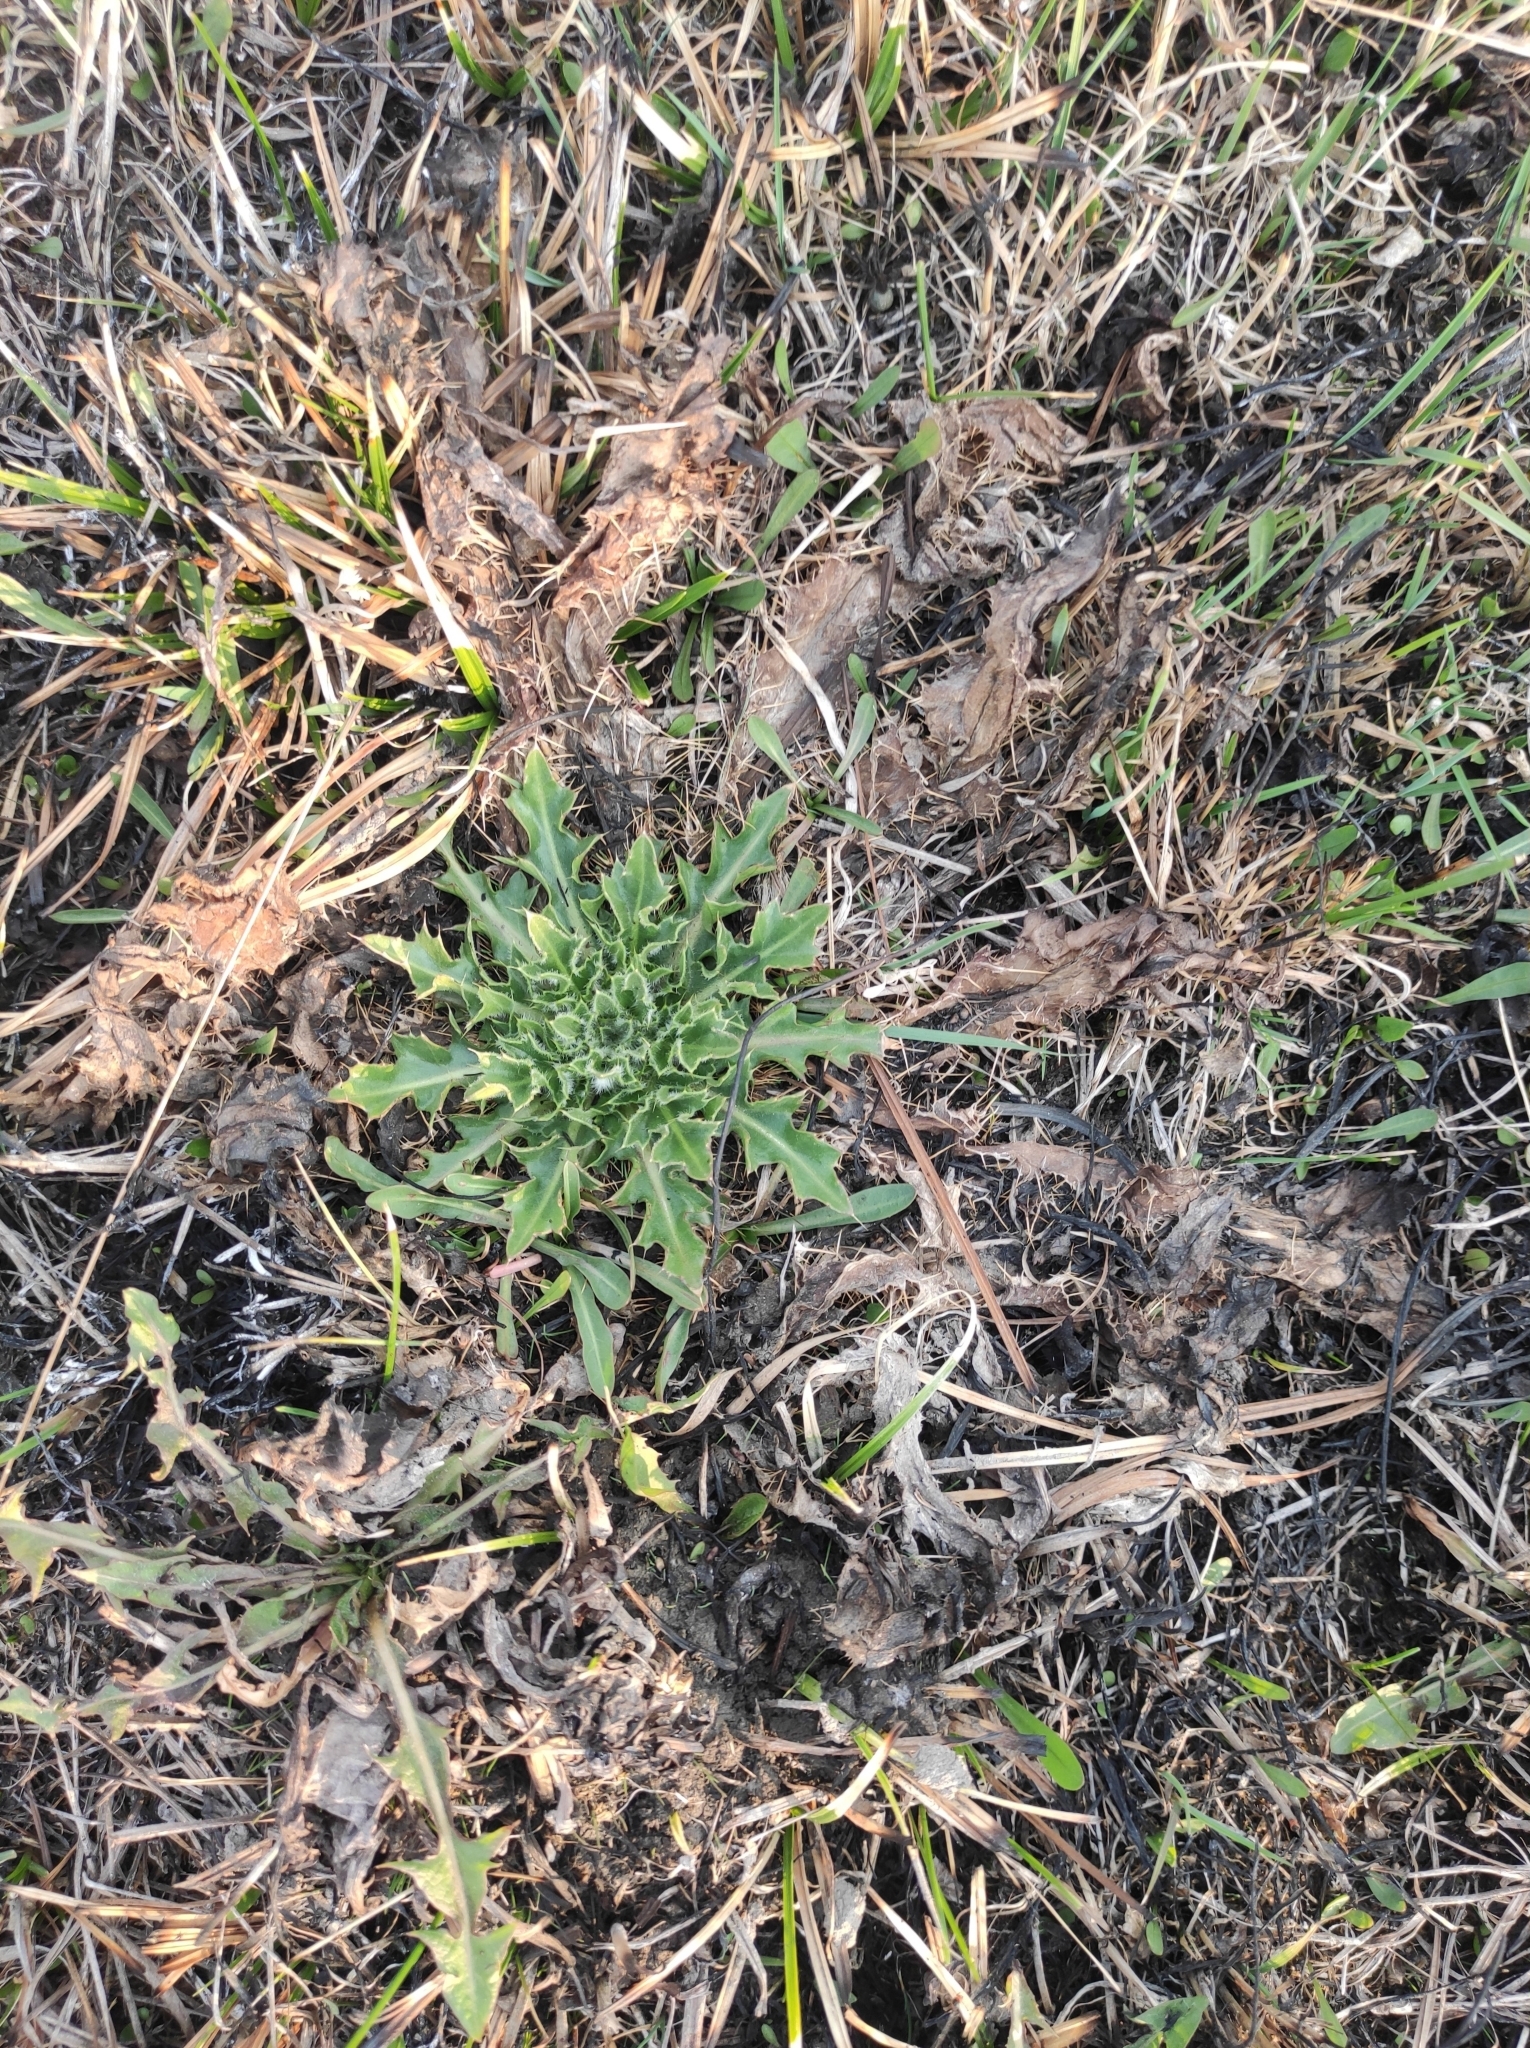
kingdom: Plantae
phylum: Tracheophyta
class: Magnoliopsida
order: Asterales
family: Asteraceae
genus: Cirsium
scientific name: Cirsium esculentum
